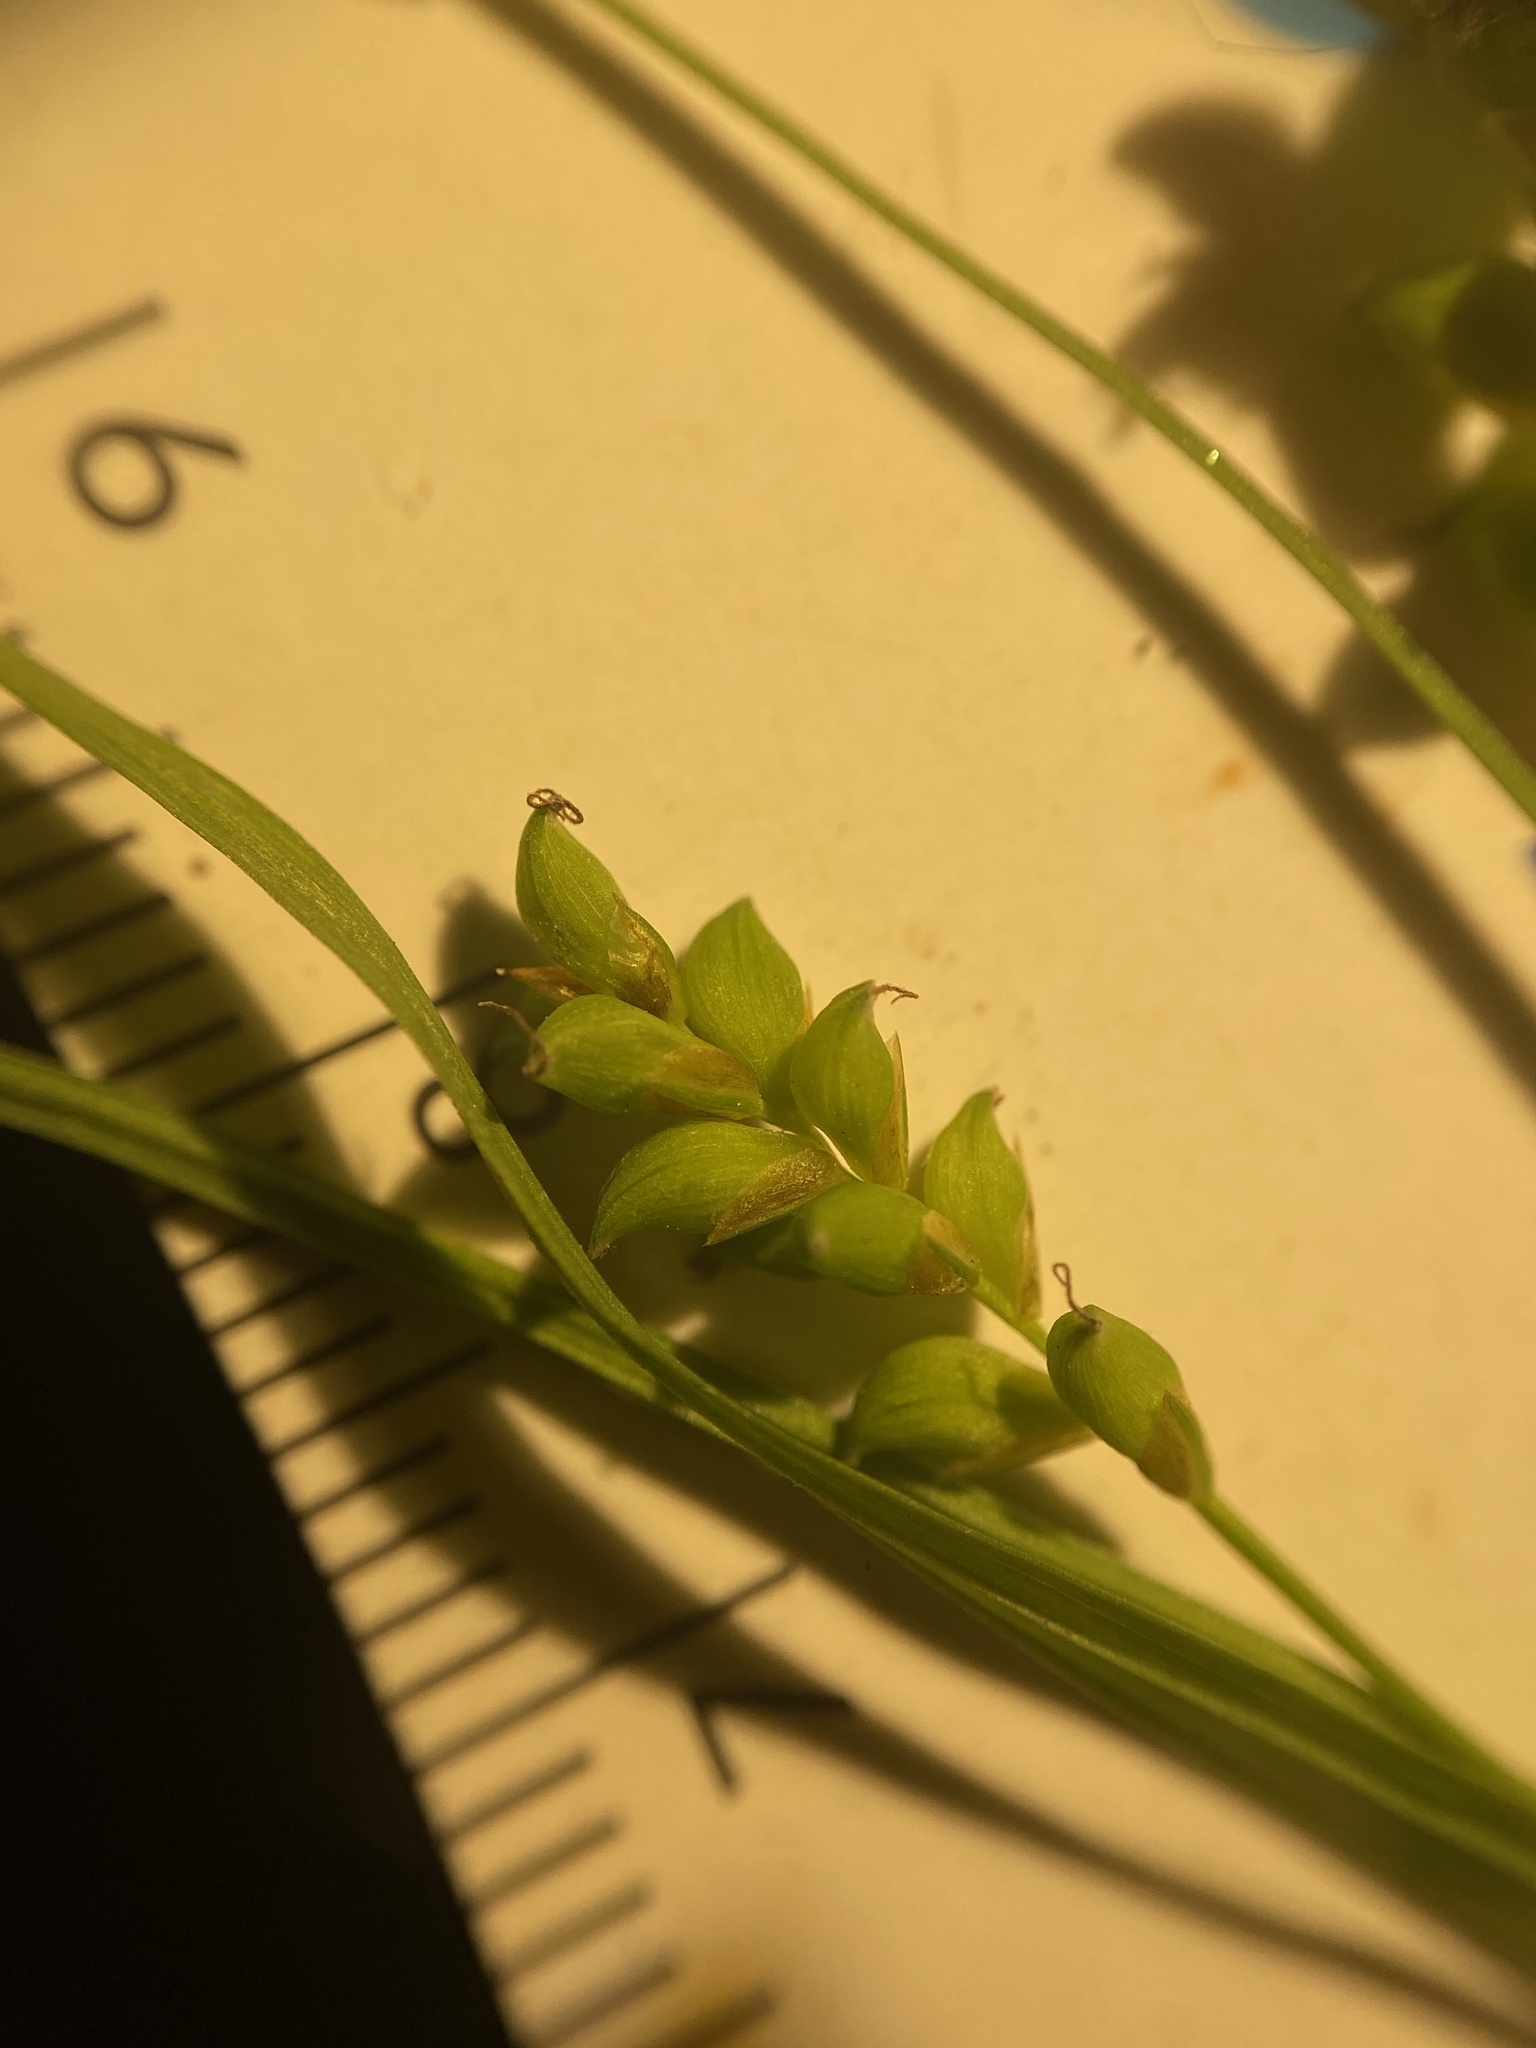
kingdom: Plantae
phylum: Tracheophyta
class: Liliopsida
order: Poales
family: Cyperaceae
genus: Carex
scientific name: Carex
